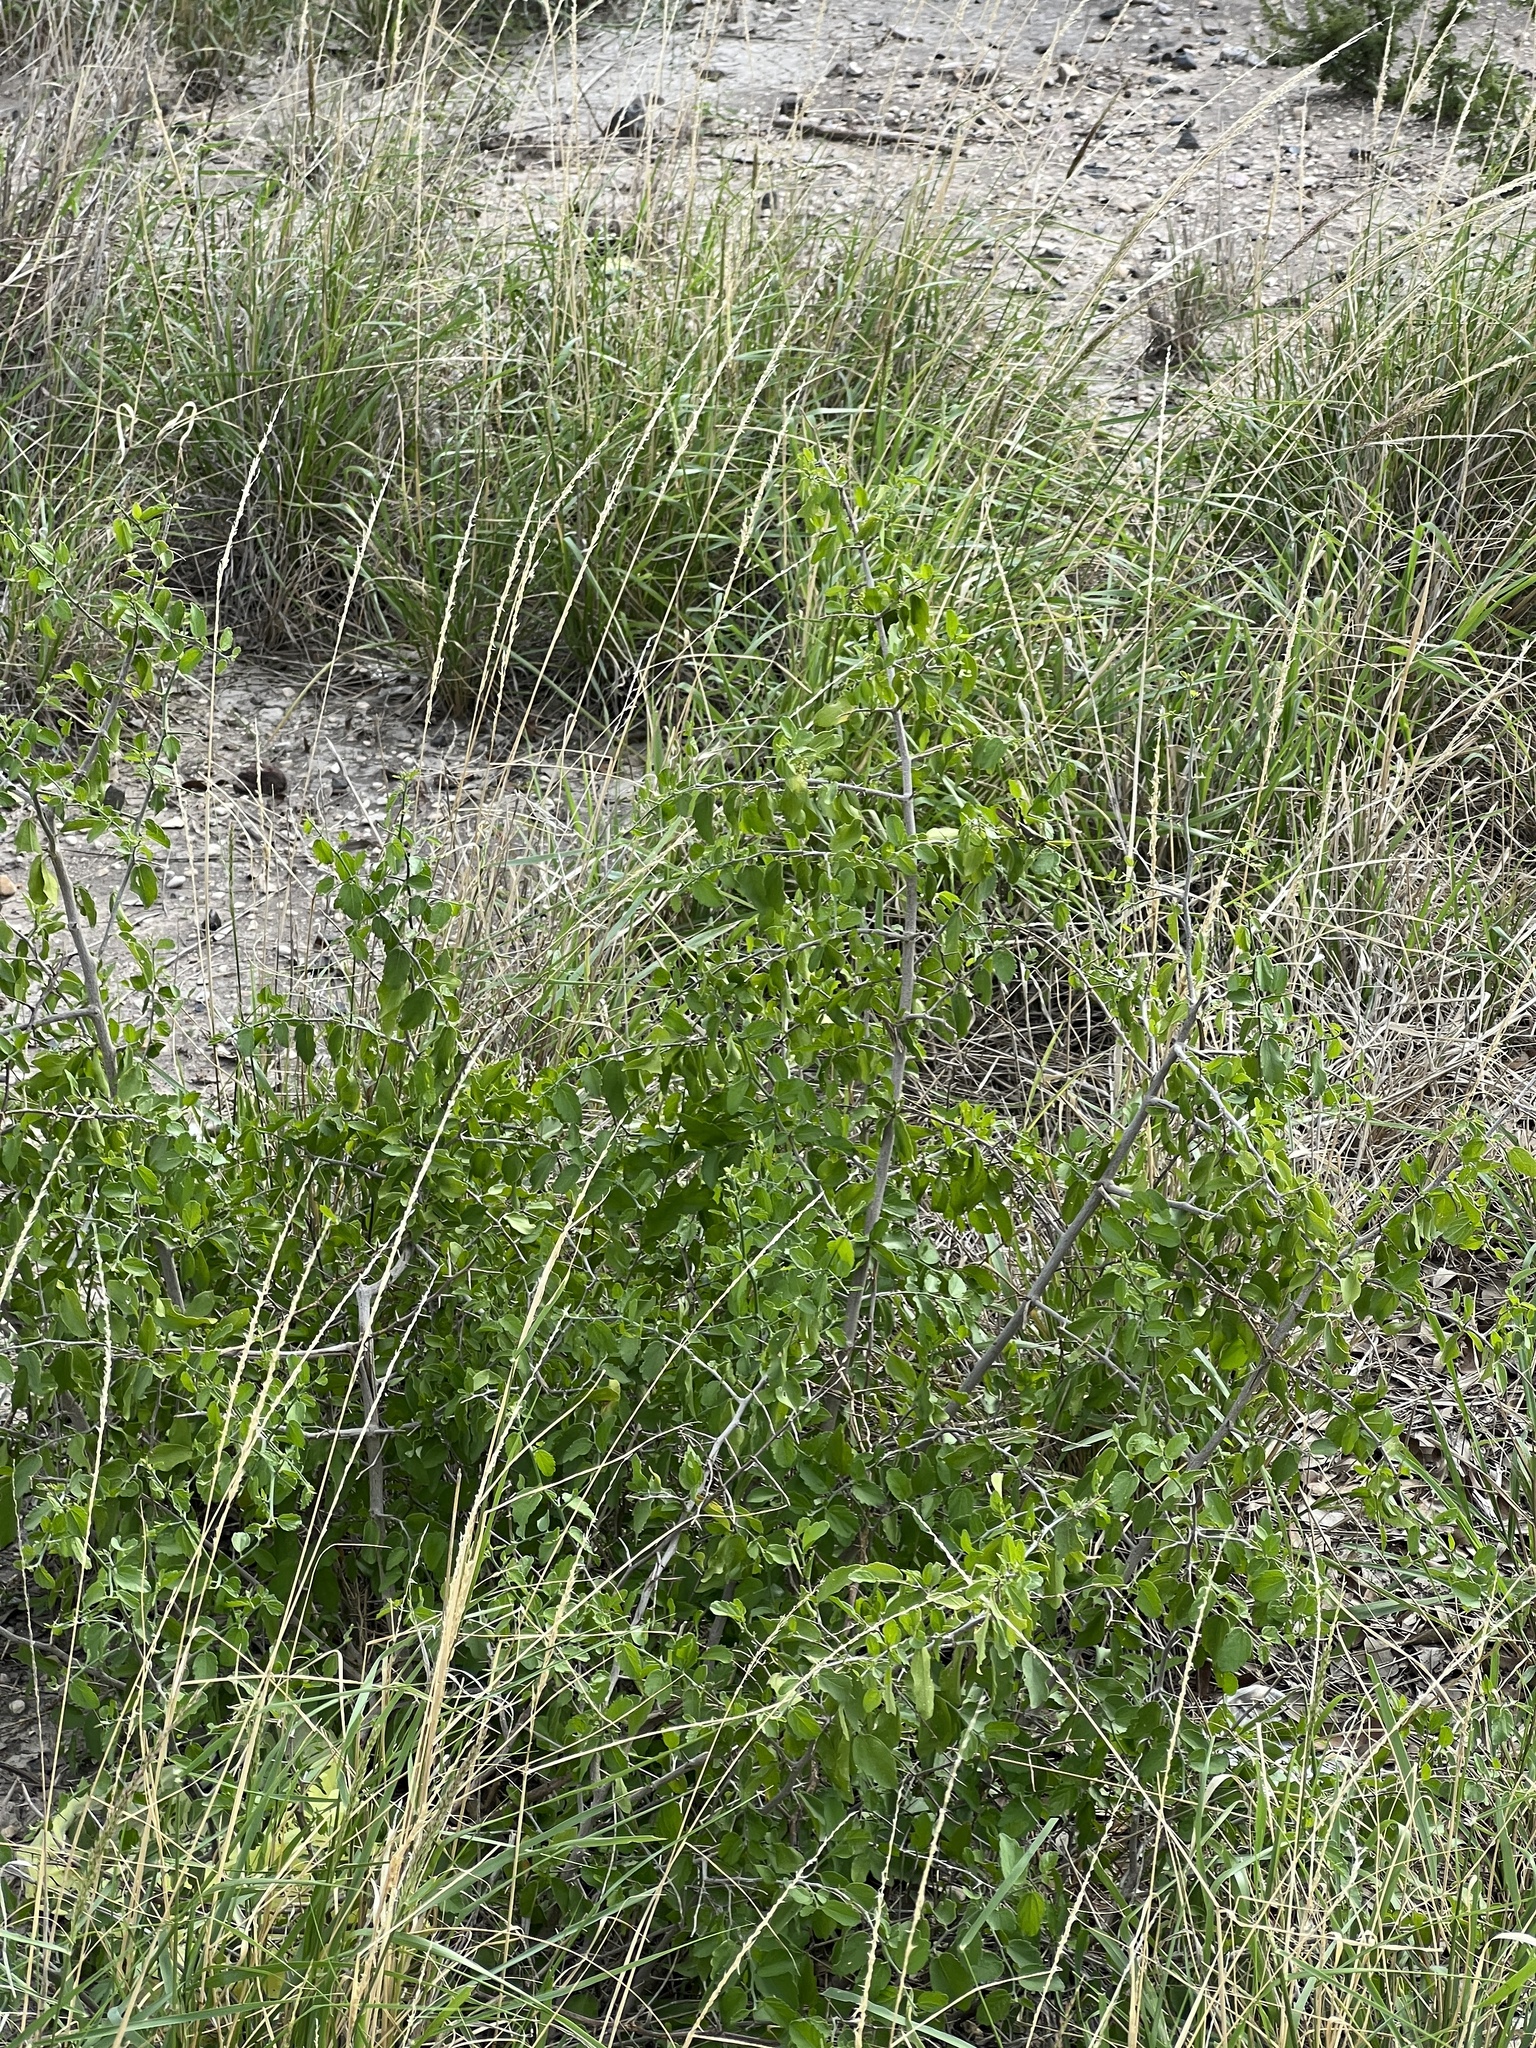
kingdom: Plantae
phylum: Tracheophyta
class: Magnoliopsida
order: Rosales
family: Cannabaceae
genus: Celtis
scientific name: Celtis pallida
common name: Desert hackberry
